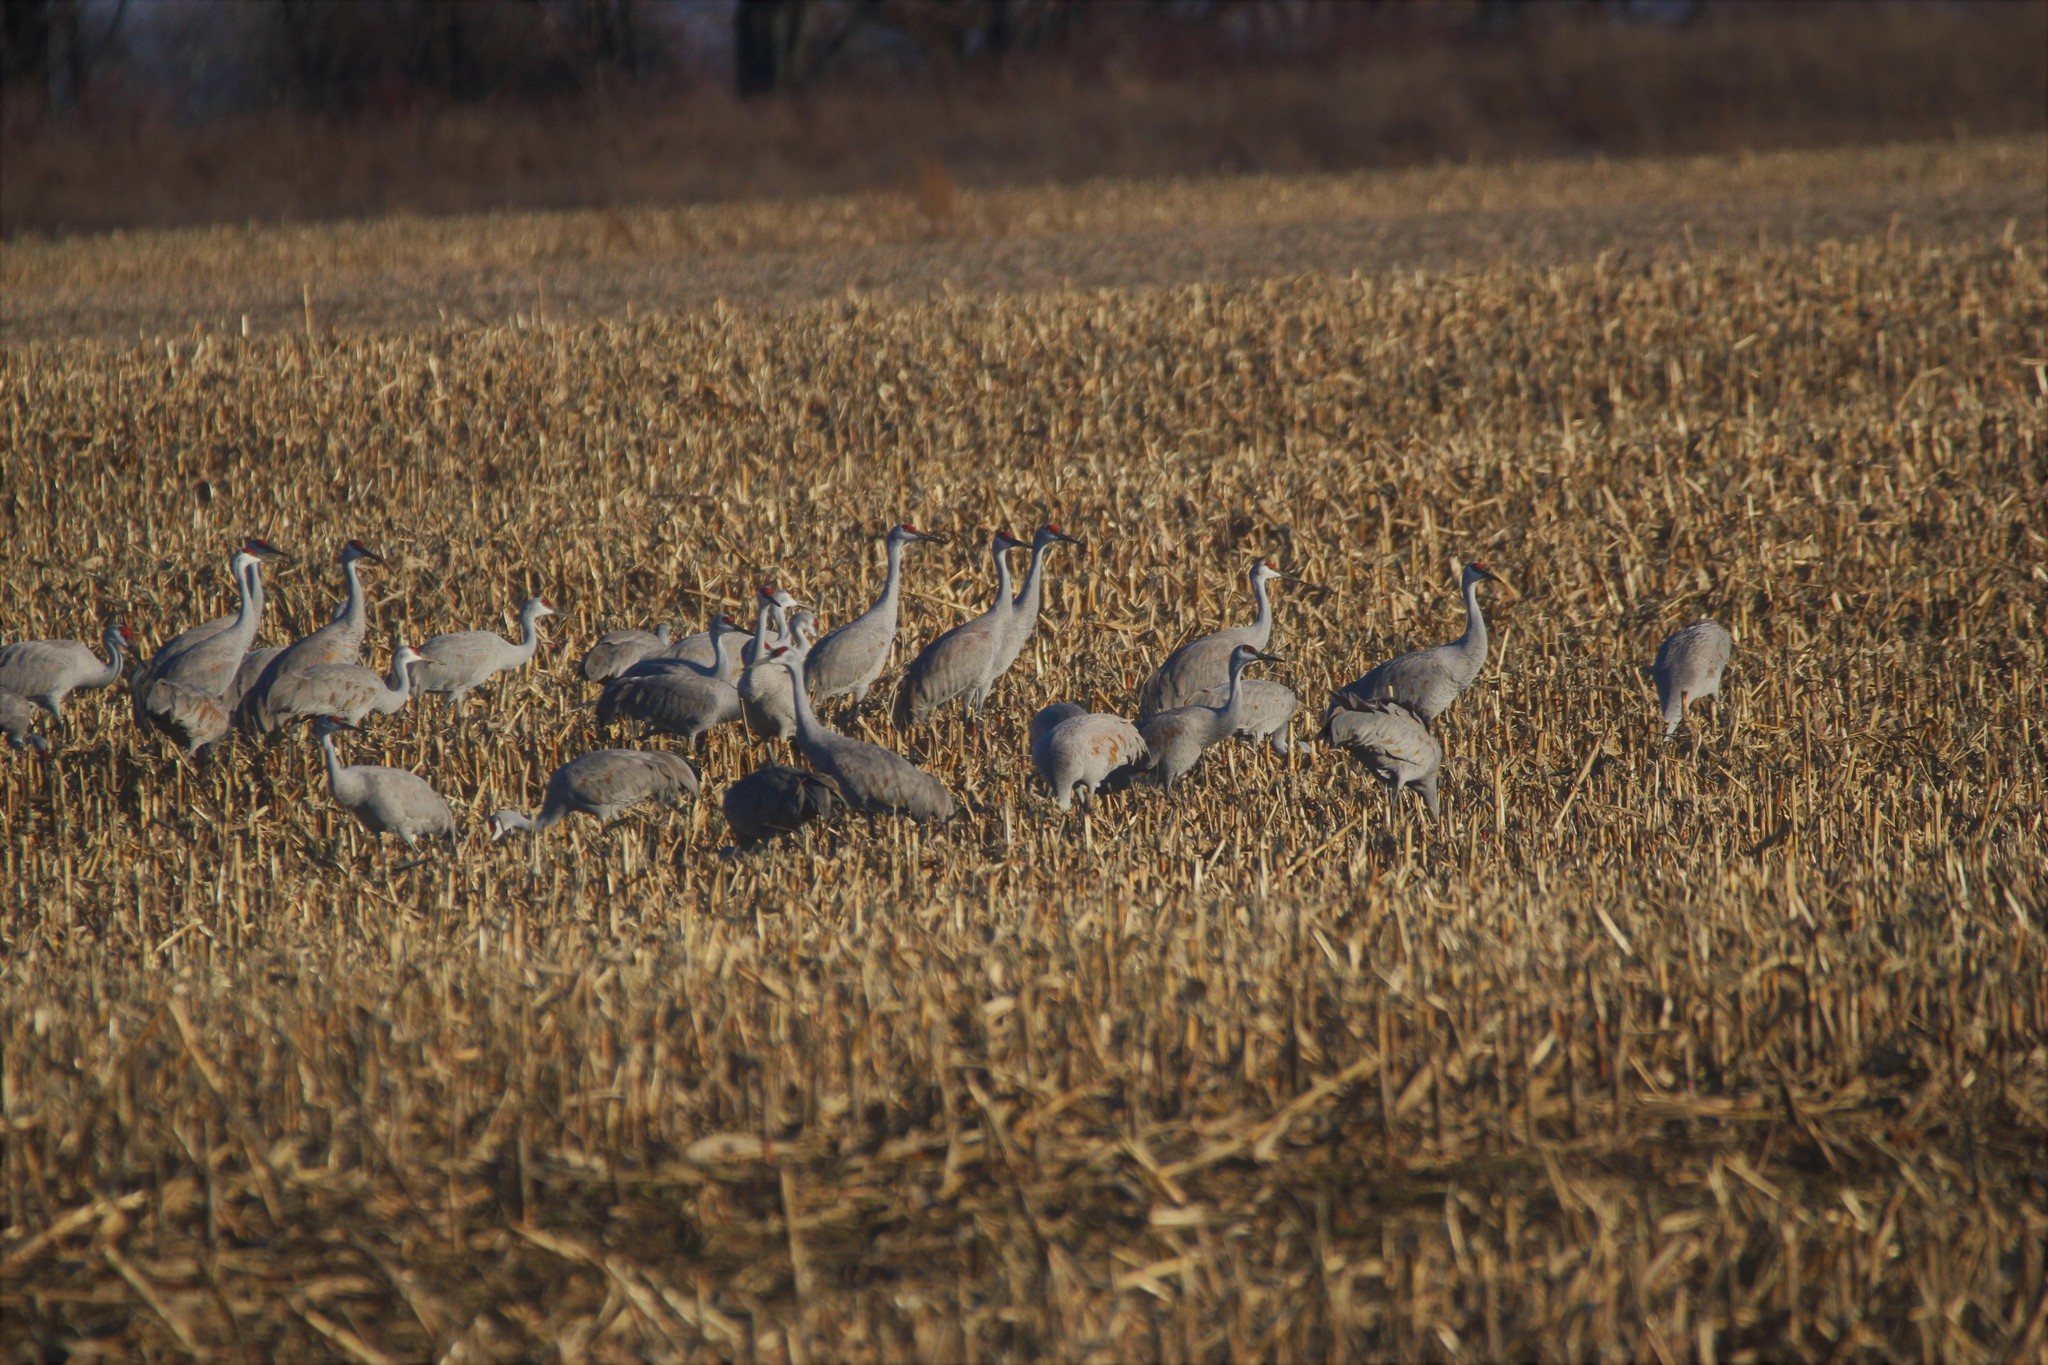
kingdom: Animalia
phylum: Chordata
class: Aves
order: Gruiformes
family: Gruidae
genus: Grus
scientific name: Grus canadensis
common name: Sandhill crane
